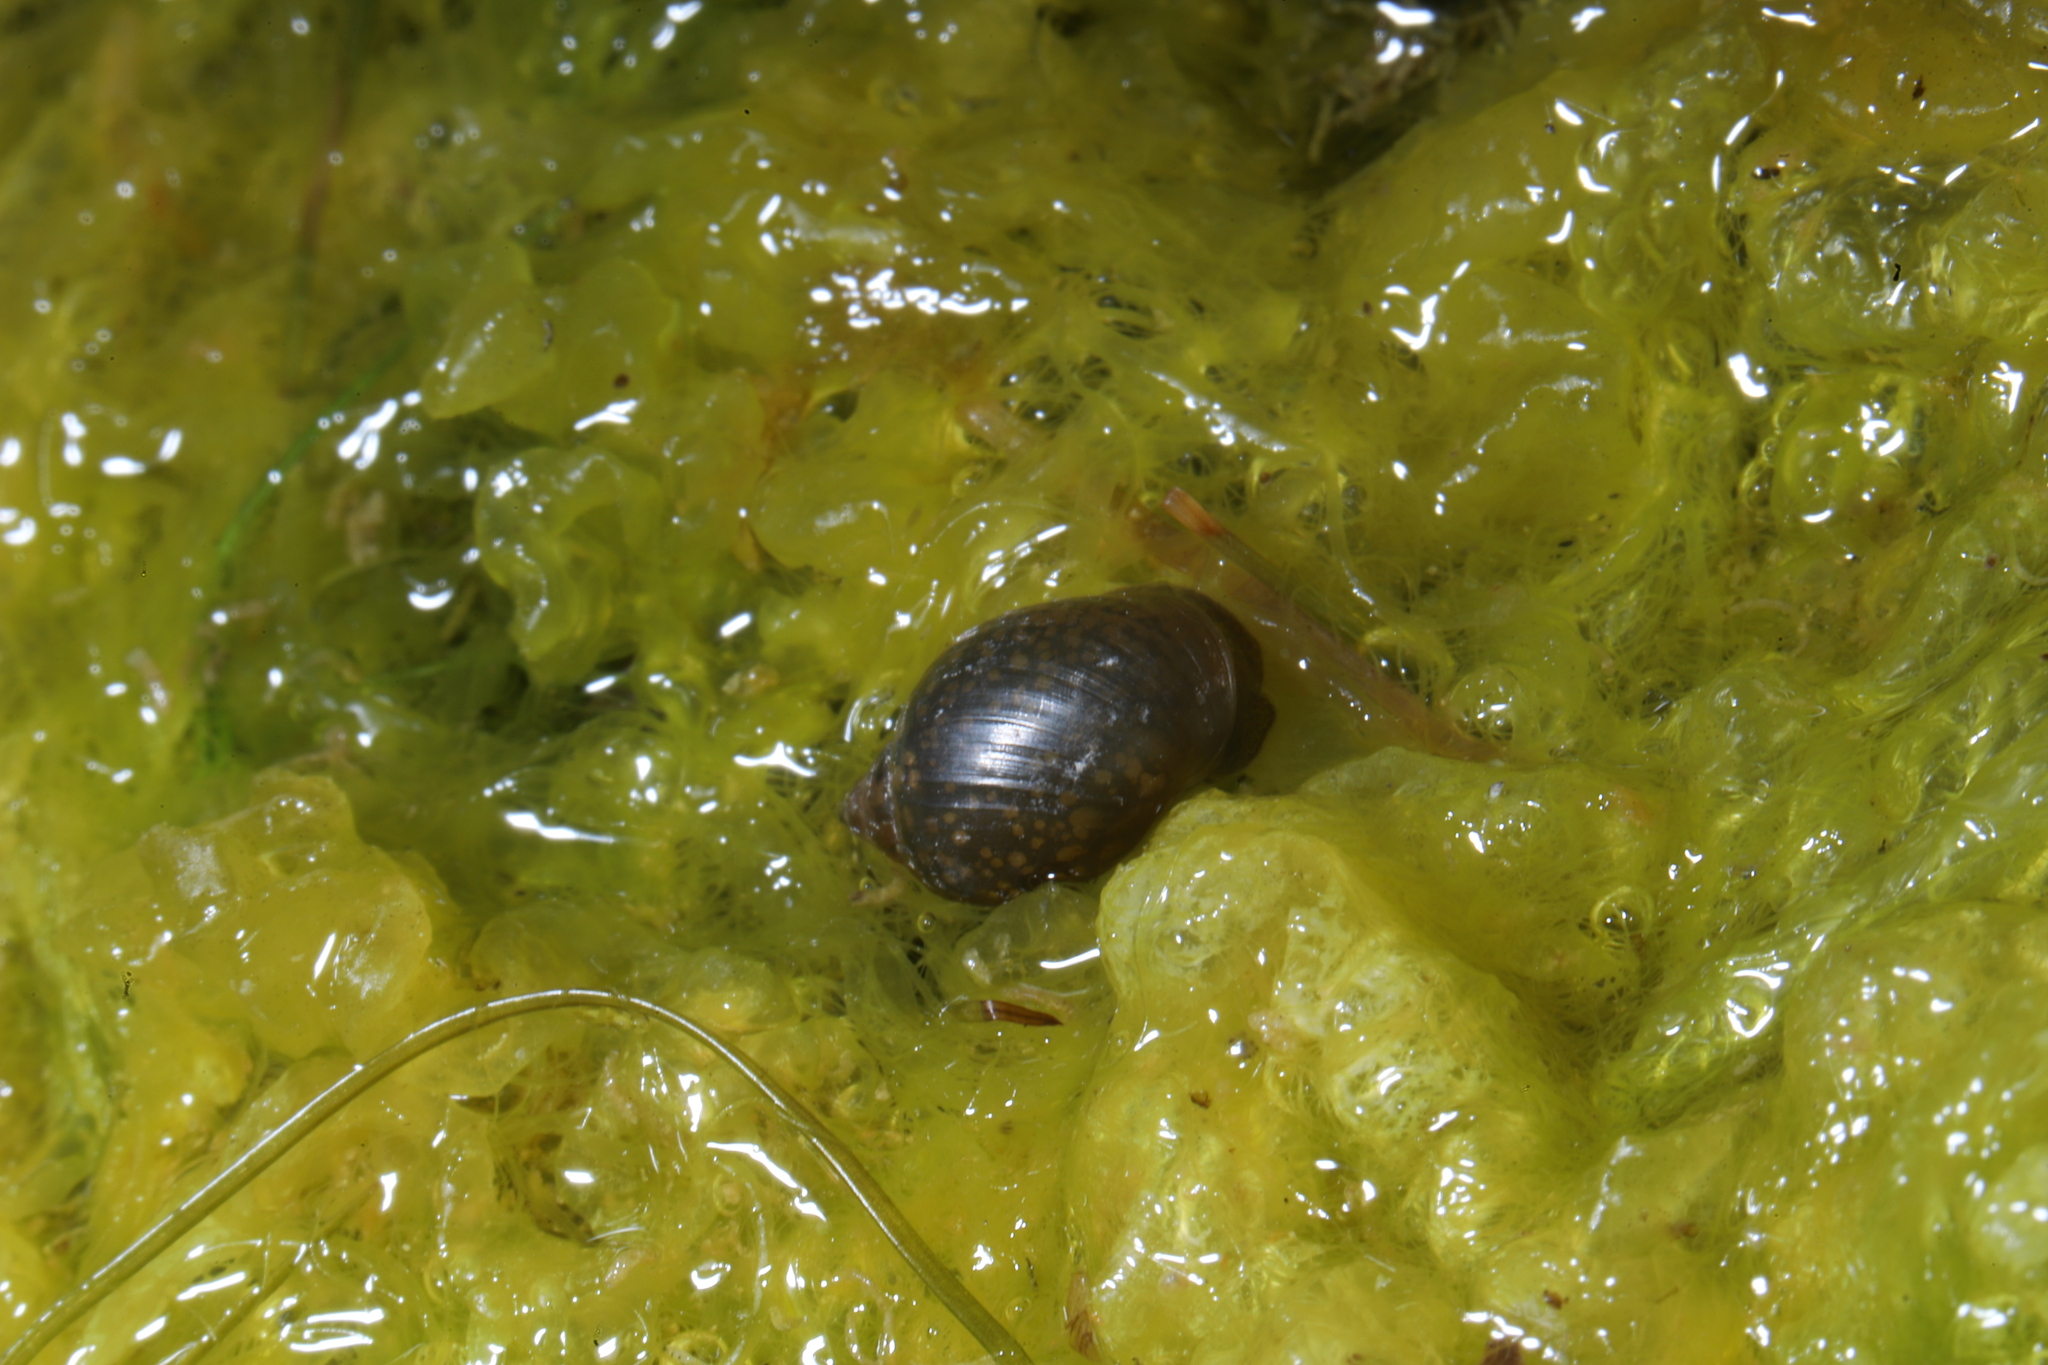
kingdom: Animalia
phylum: Mollusca
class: Gastropoda
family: Physidae
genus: Physella
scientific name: Physella acuta
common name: European physa
